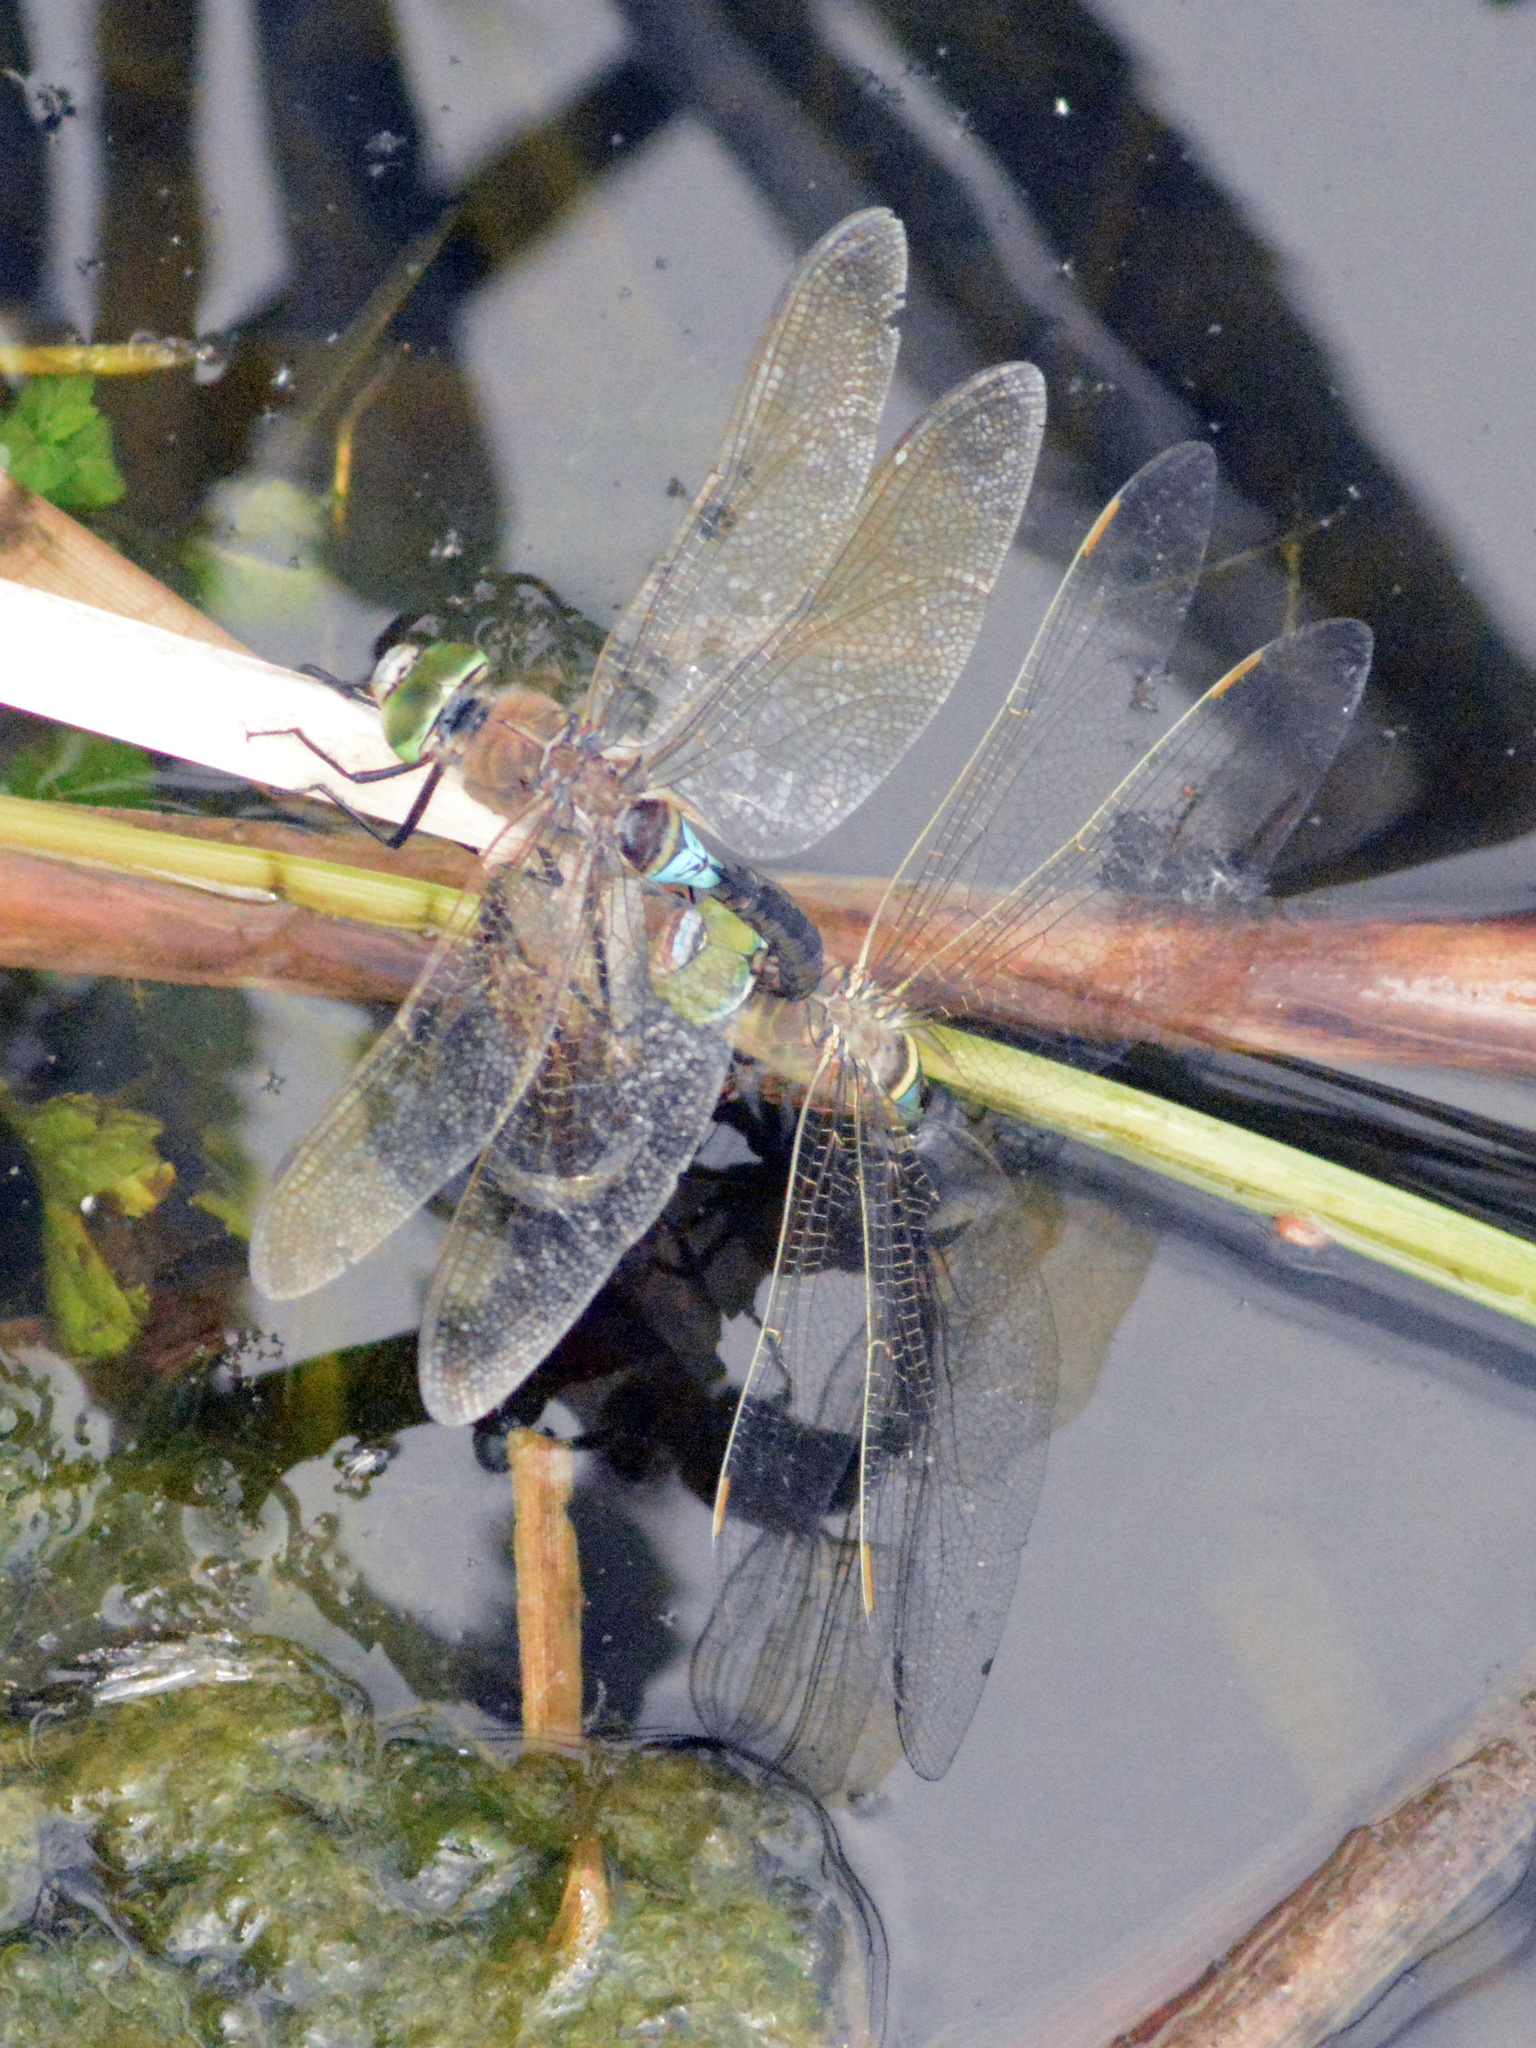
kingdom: Animalia
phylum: Arthropoda
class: Insecta
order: Odonata
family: Aeshnidae
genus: Anax
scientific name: Anax parthenope
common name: Lesser emperor
